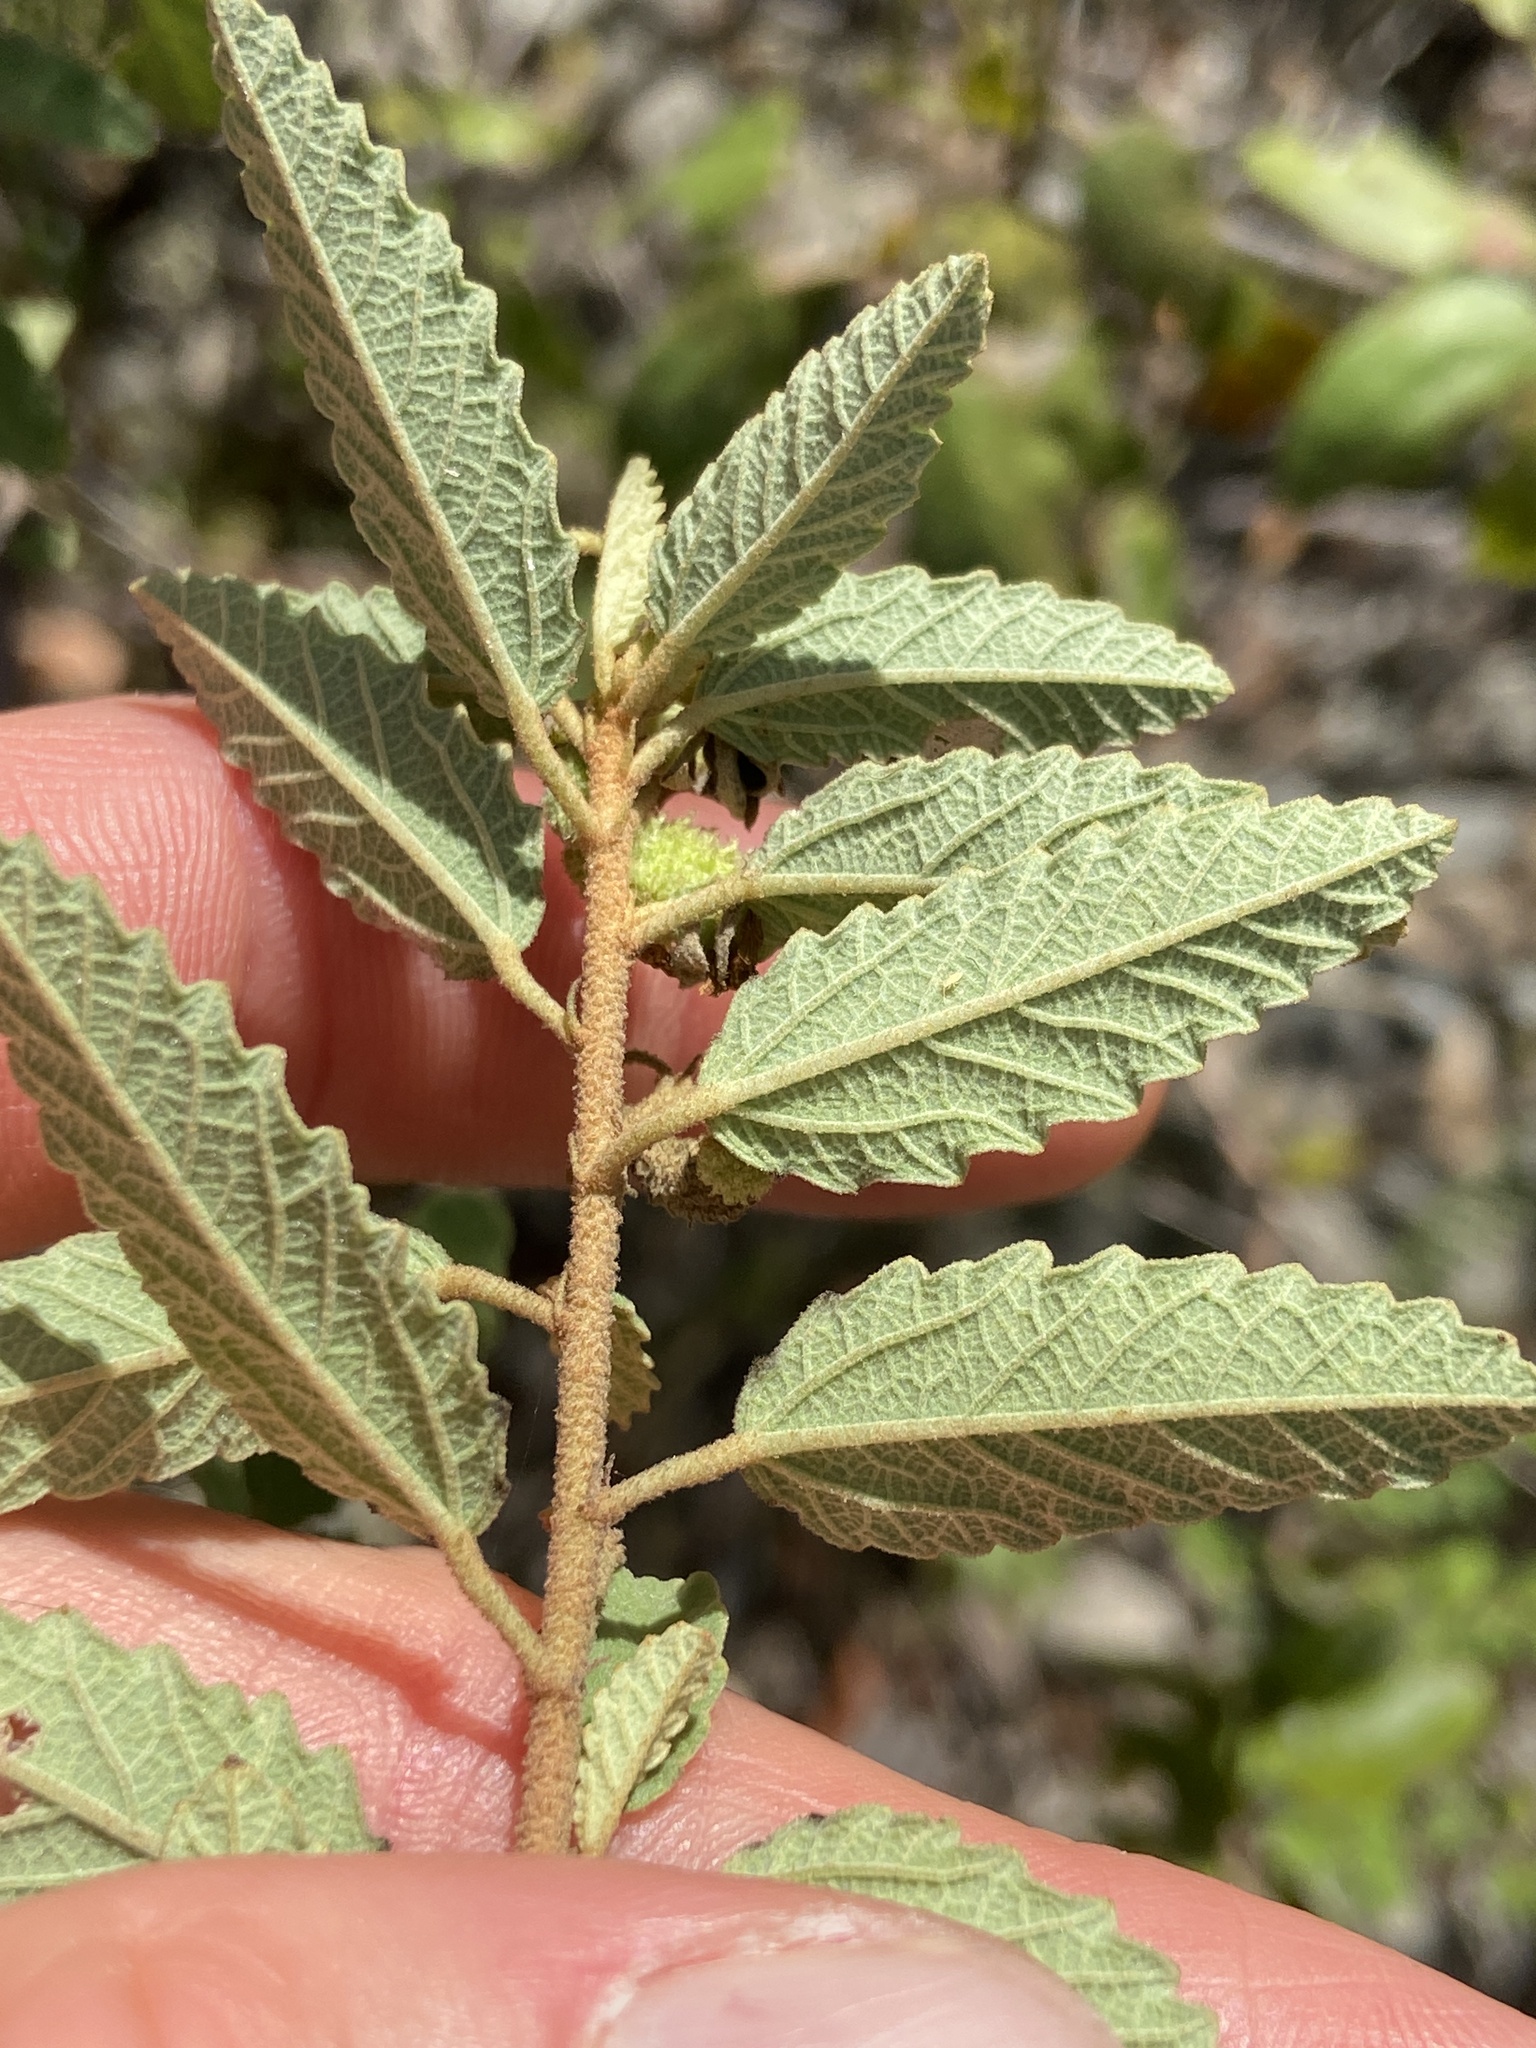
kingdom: Plantae
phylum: Tracheophyta
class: Magnoliopsida
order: Malvales
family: Malvaceae
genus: Corchorus
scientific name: Corchorus hirsutus
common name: Jackswitch
